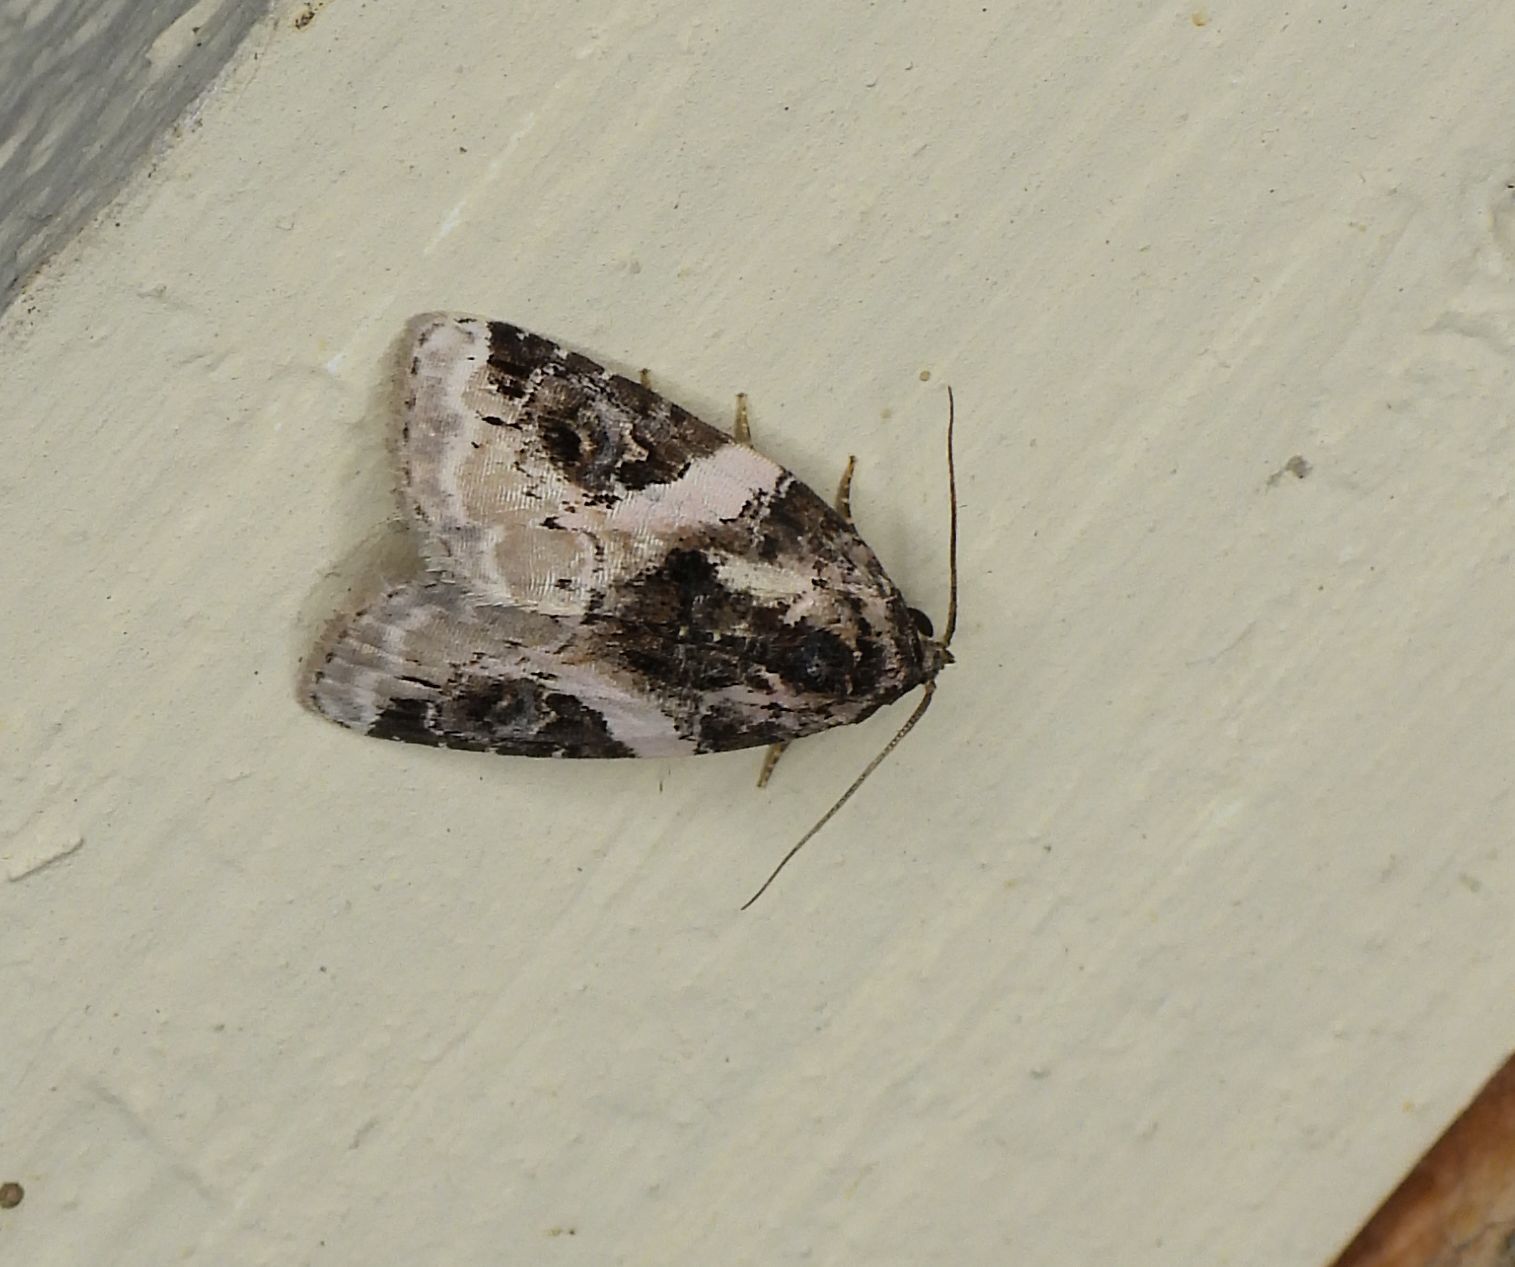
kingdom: Animalia
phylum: Arthropoda
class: Insecta
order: Lepidoptera
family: Noctuidae
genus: Pseudeustrotia
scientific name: Pseudeustrotia carneola
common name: Pink-barred lithacodia moth
